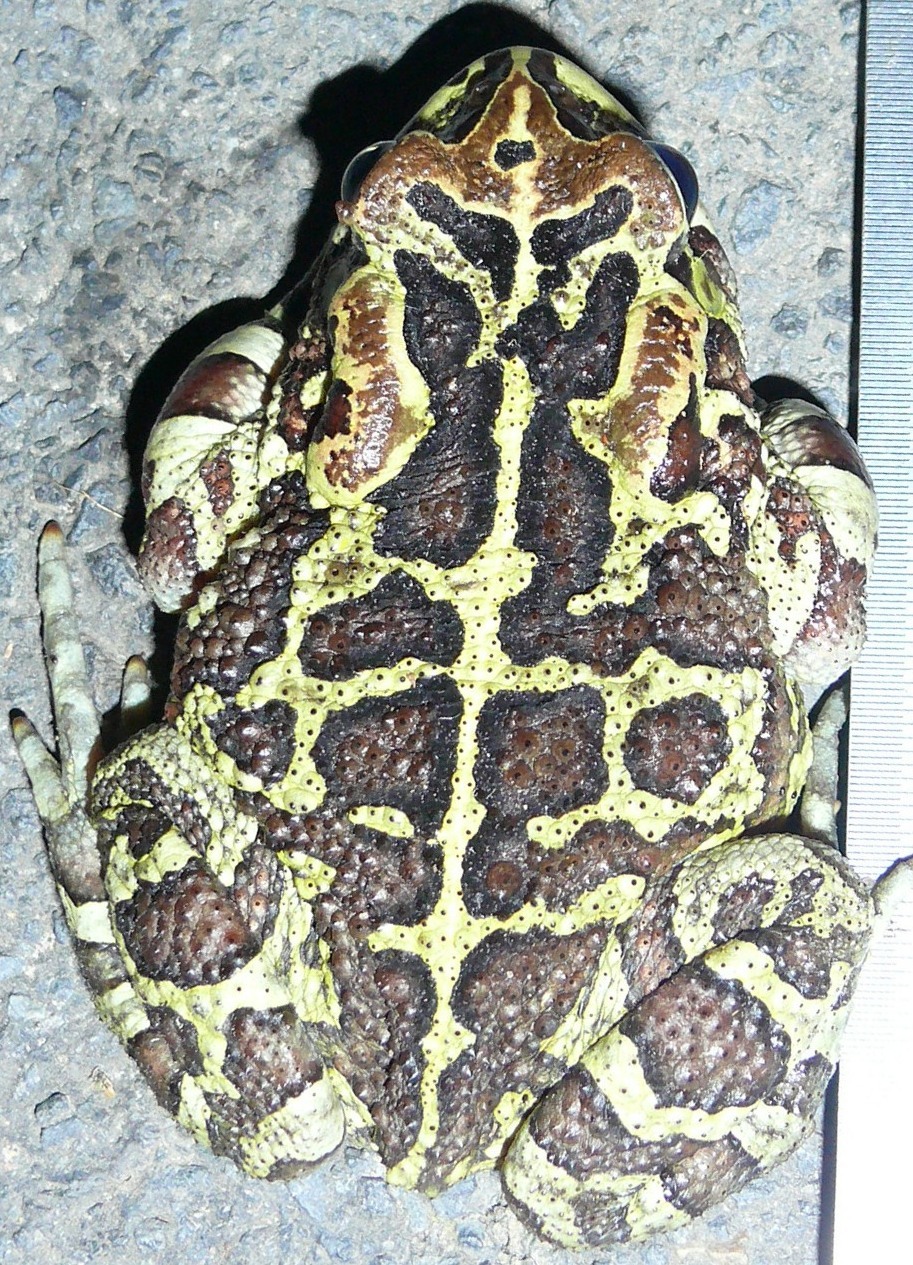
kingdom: Animalia
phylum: Chordata
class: Amphibia
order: Anura
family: Bufonidae
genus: Sclerophrys
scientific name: Sclerophrys pantherina
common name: Panther toad
